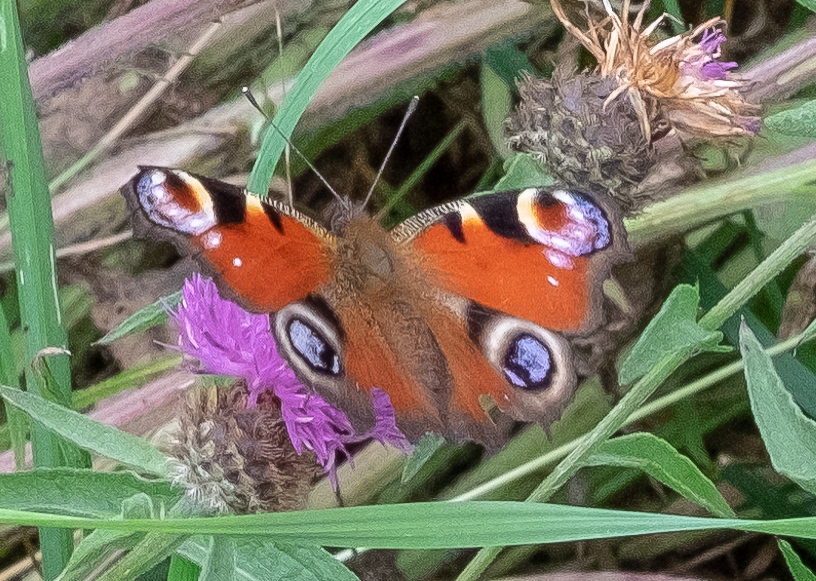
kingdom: Animalia
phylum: Arthropoda
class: Insecta
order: Lepidoptera
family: Nymphalidae
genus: Aglais
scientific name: Aglais io
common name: Peacock
